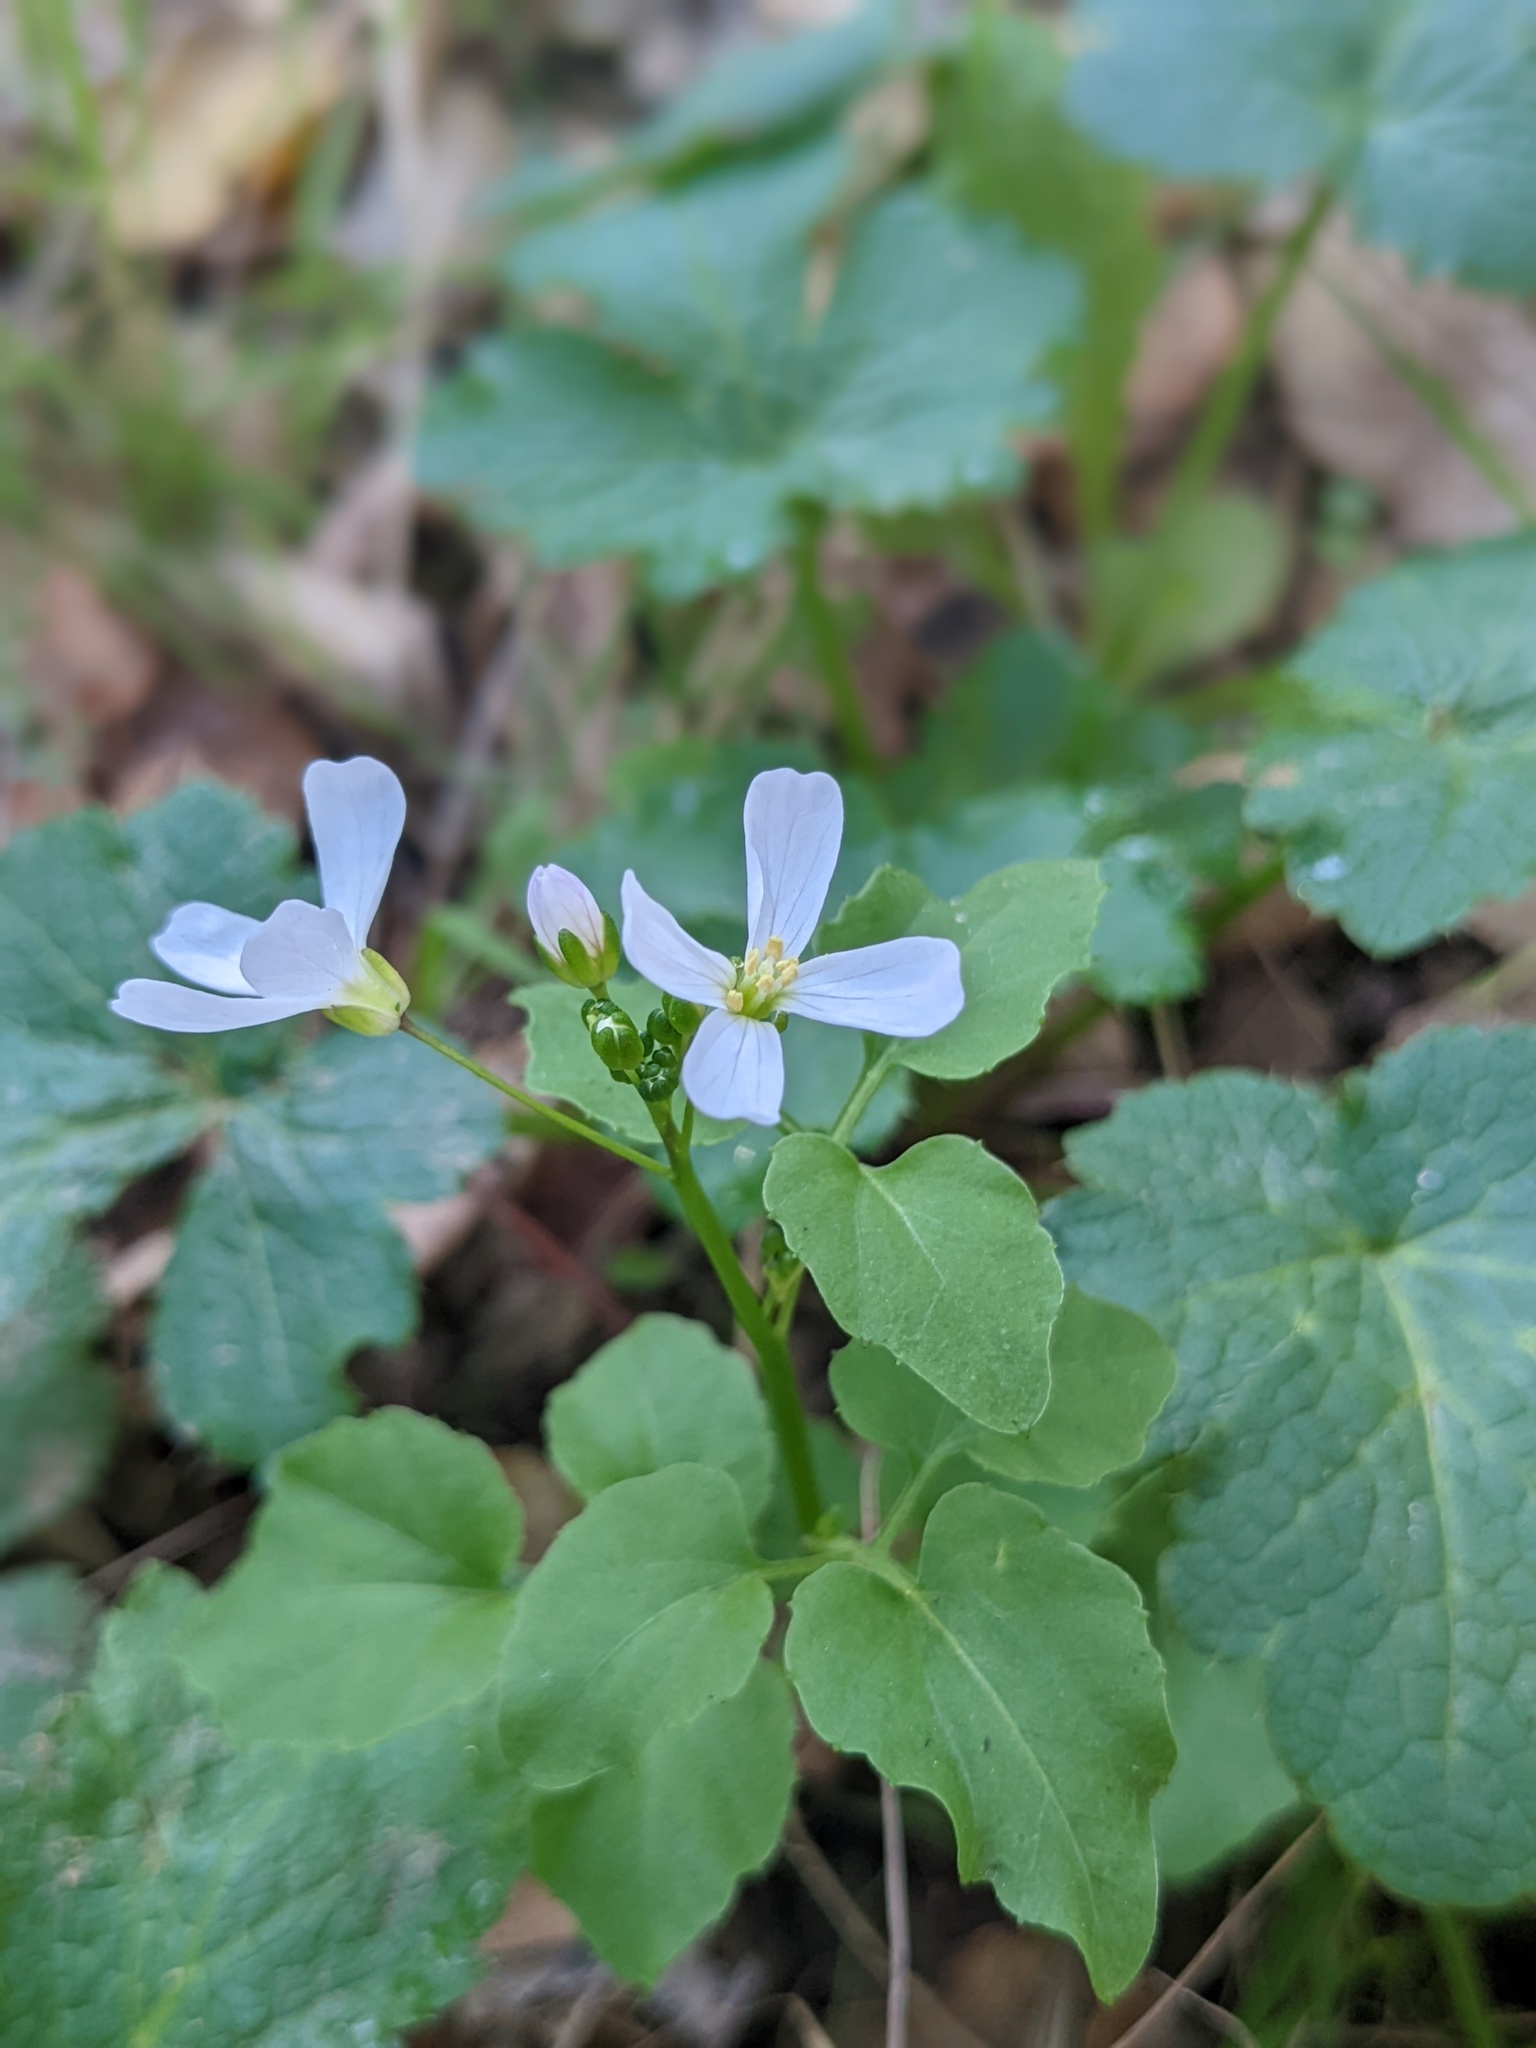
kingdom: Plantae
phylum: Tracheophyta
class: Magnoliopsida
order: Brassicales
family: Brassicaceae
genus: Cardamine
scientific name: Cardamine californica
